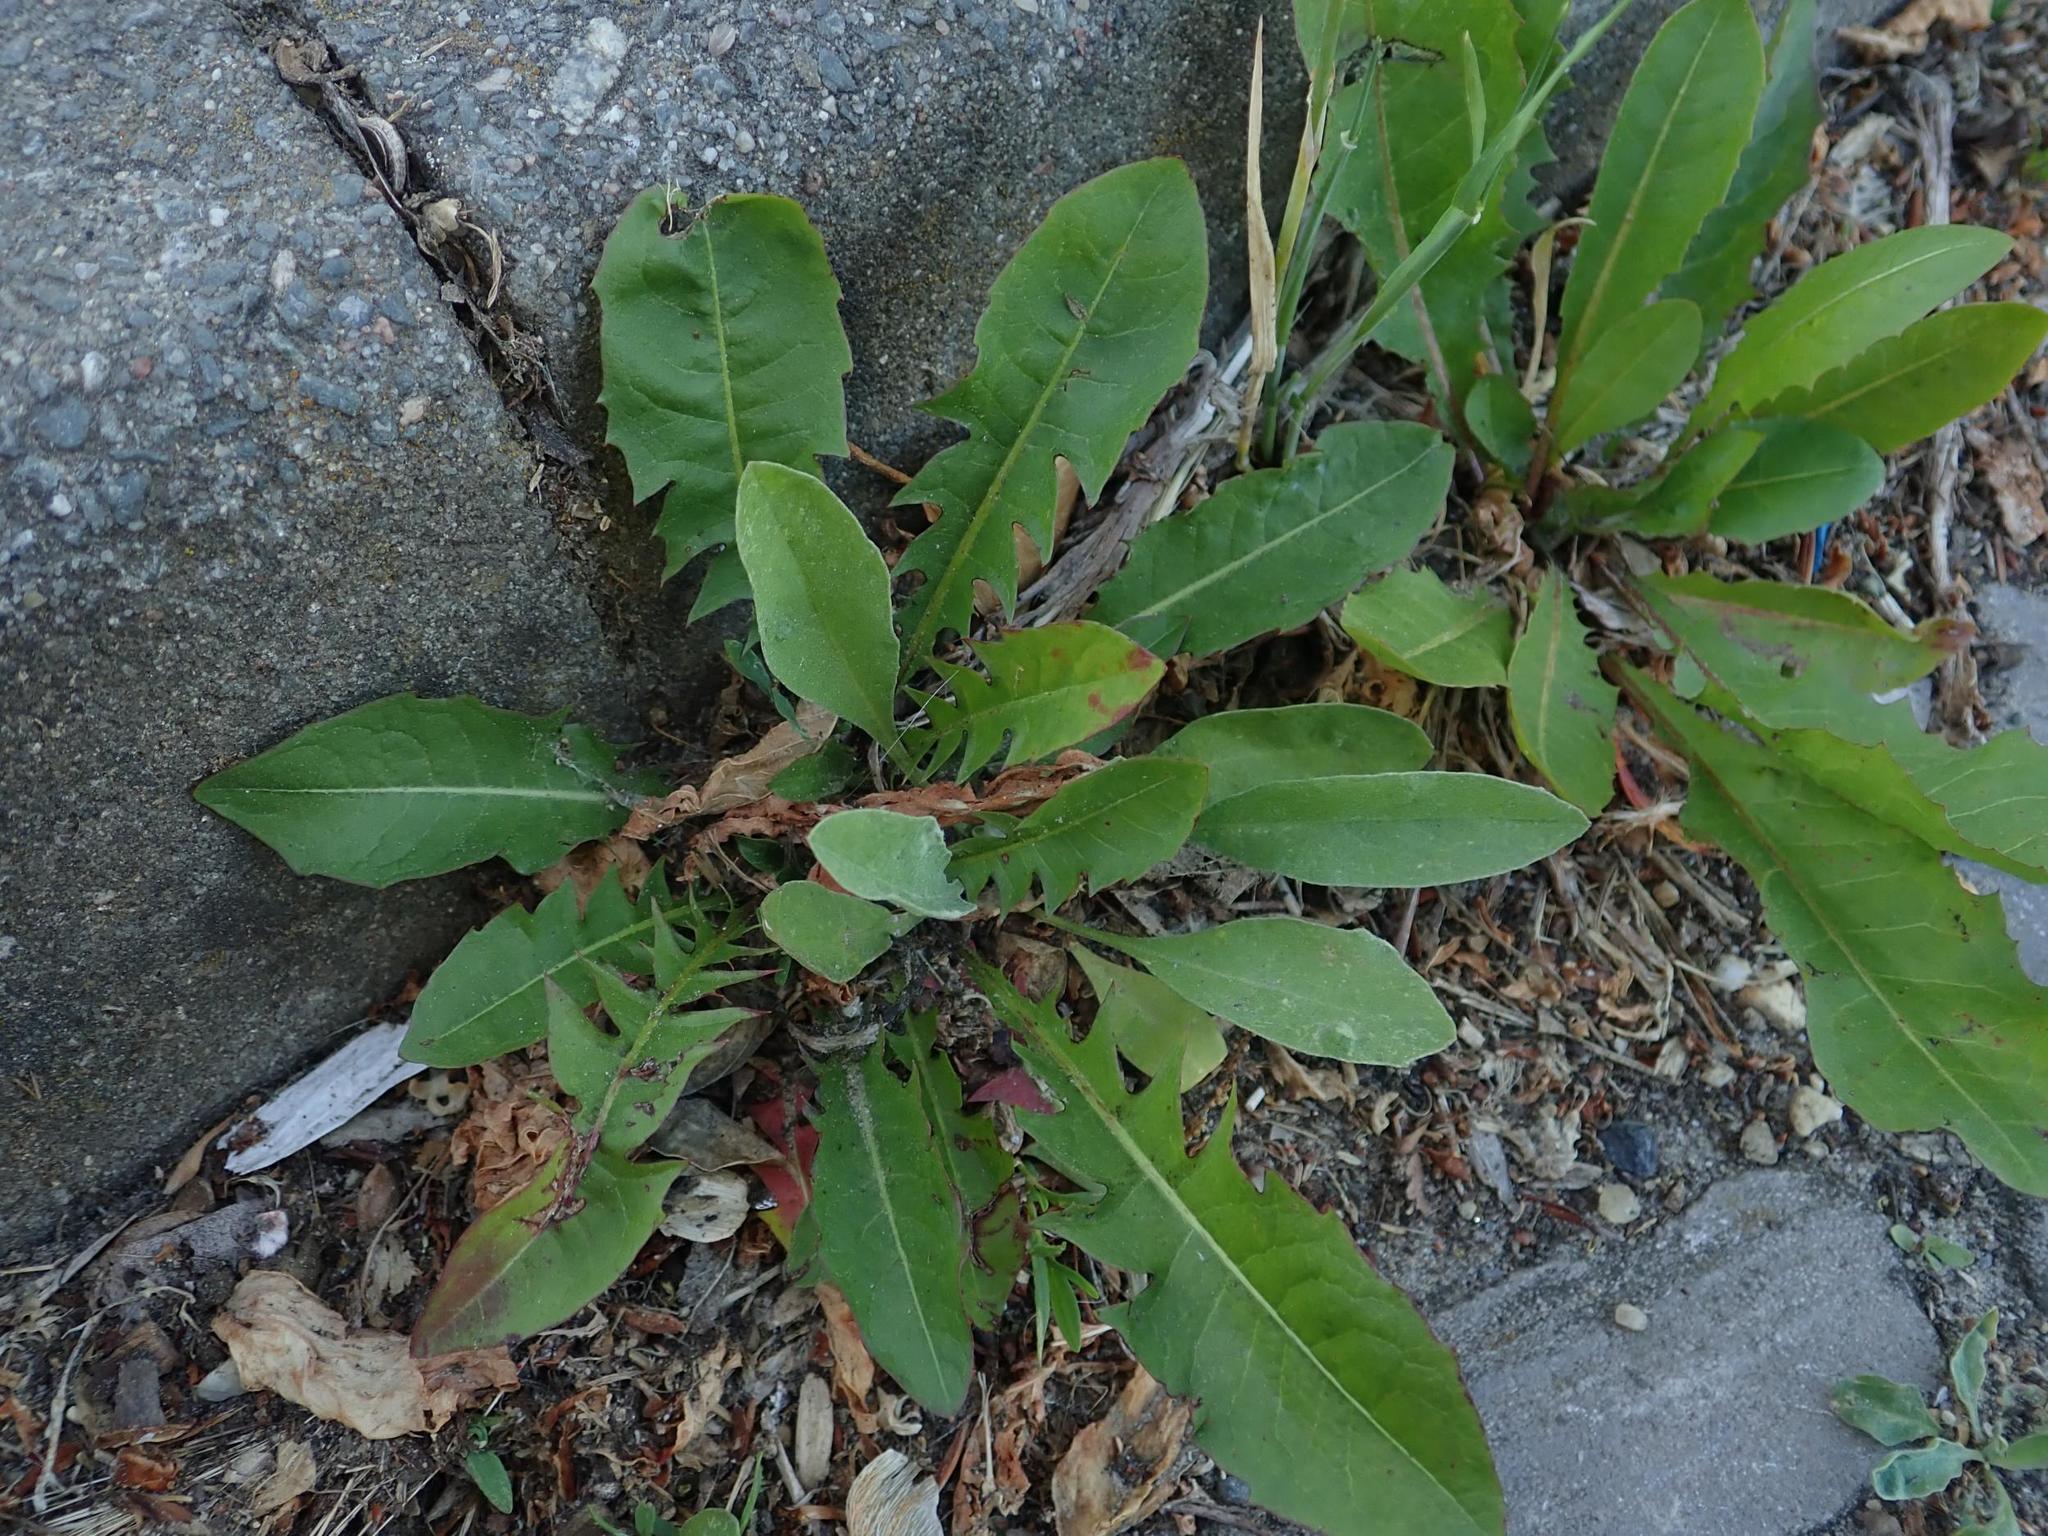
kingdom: Plantae
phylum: Tracheophyta
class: Magnoliopsida
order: Asterales
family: Asteraceae
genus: Taraxacum
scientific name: Taraxacum officinale
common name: Common dandelion
